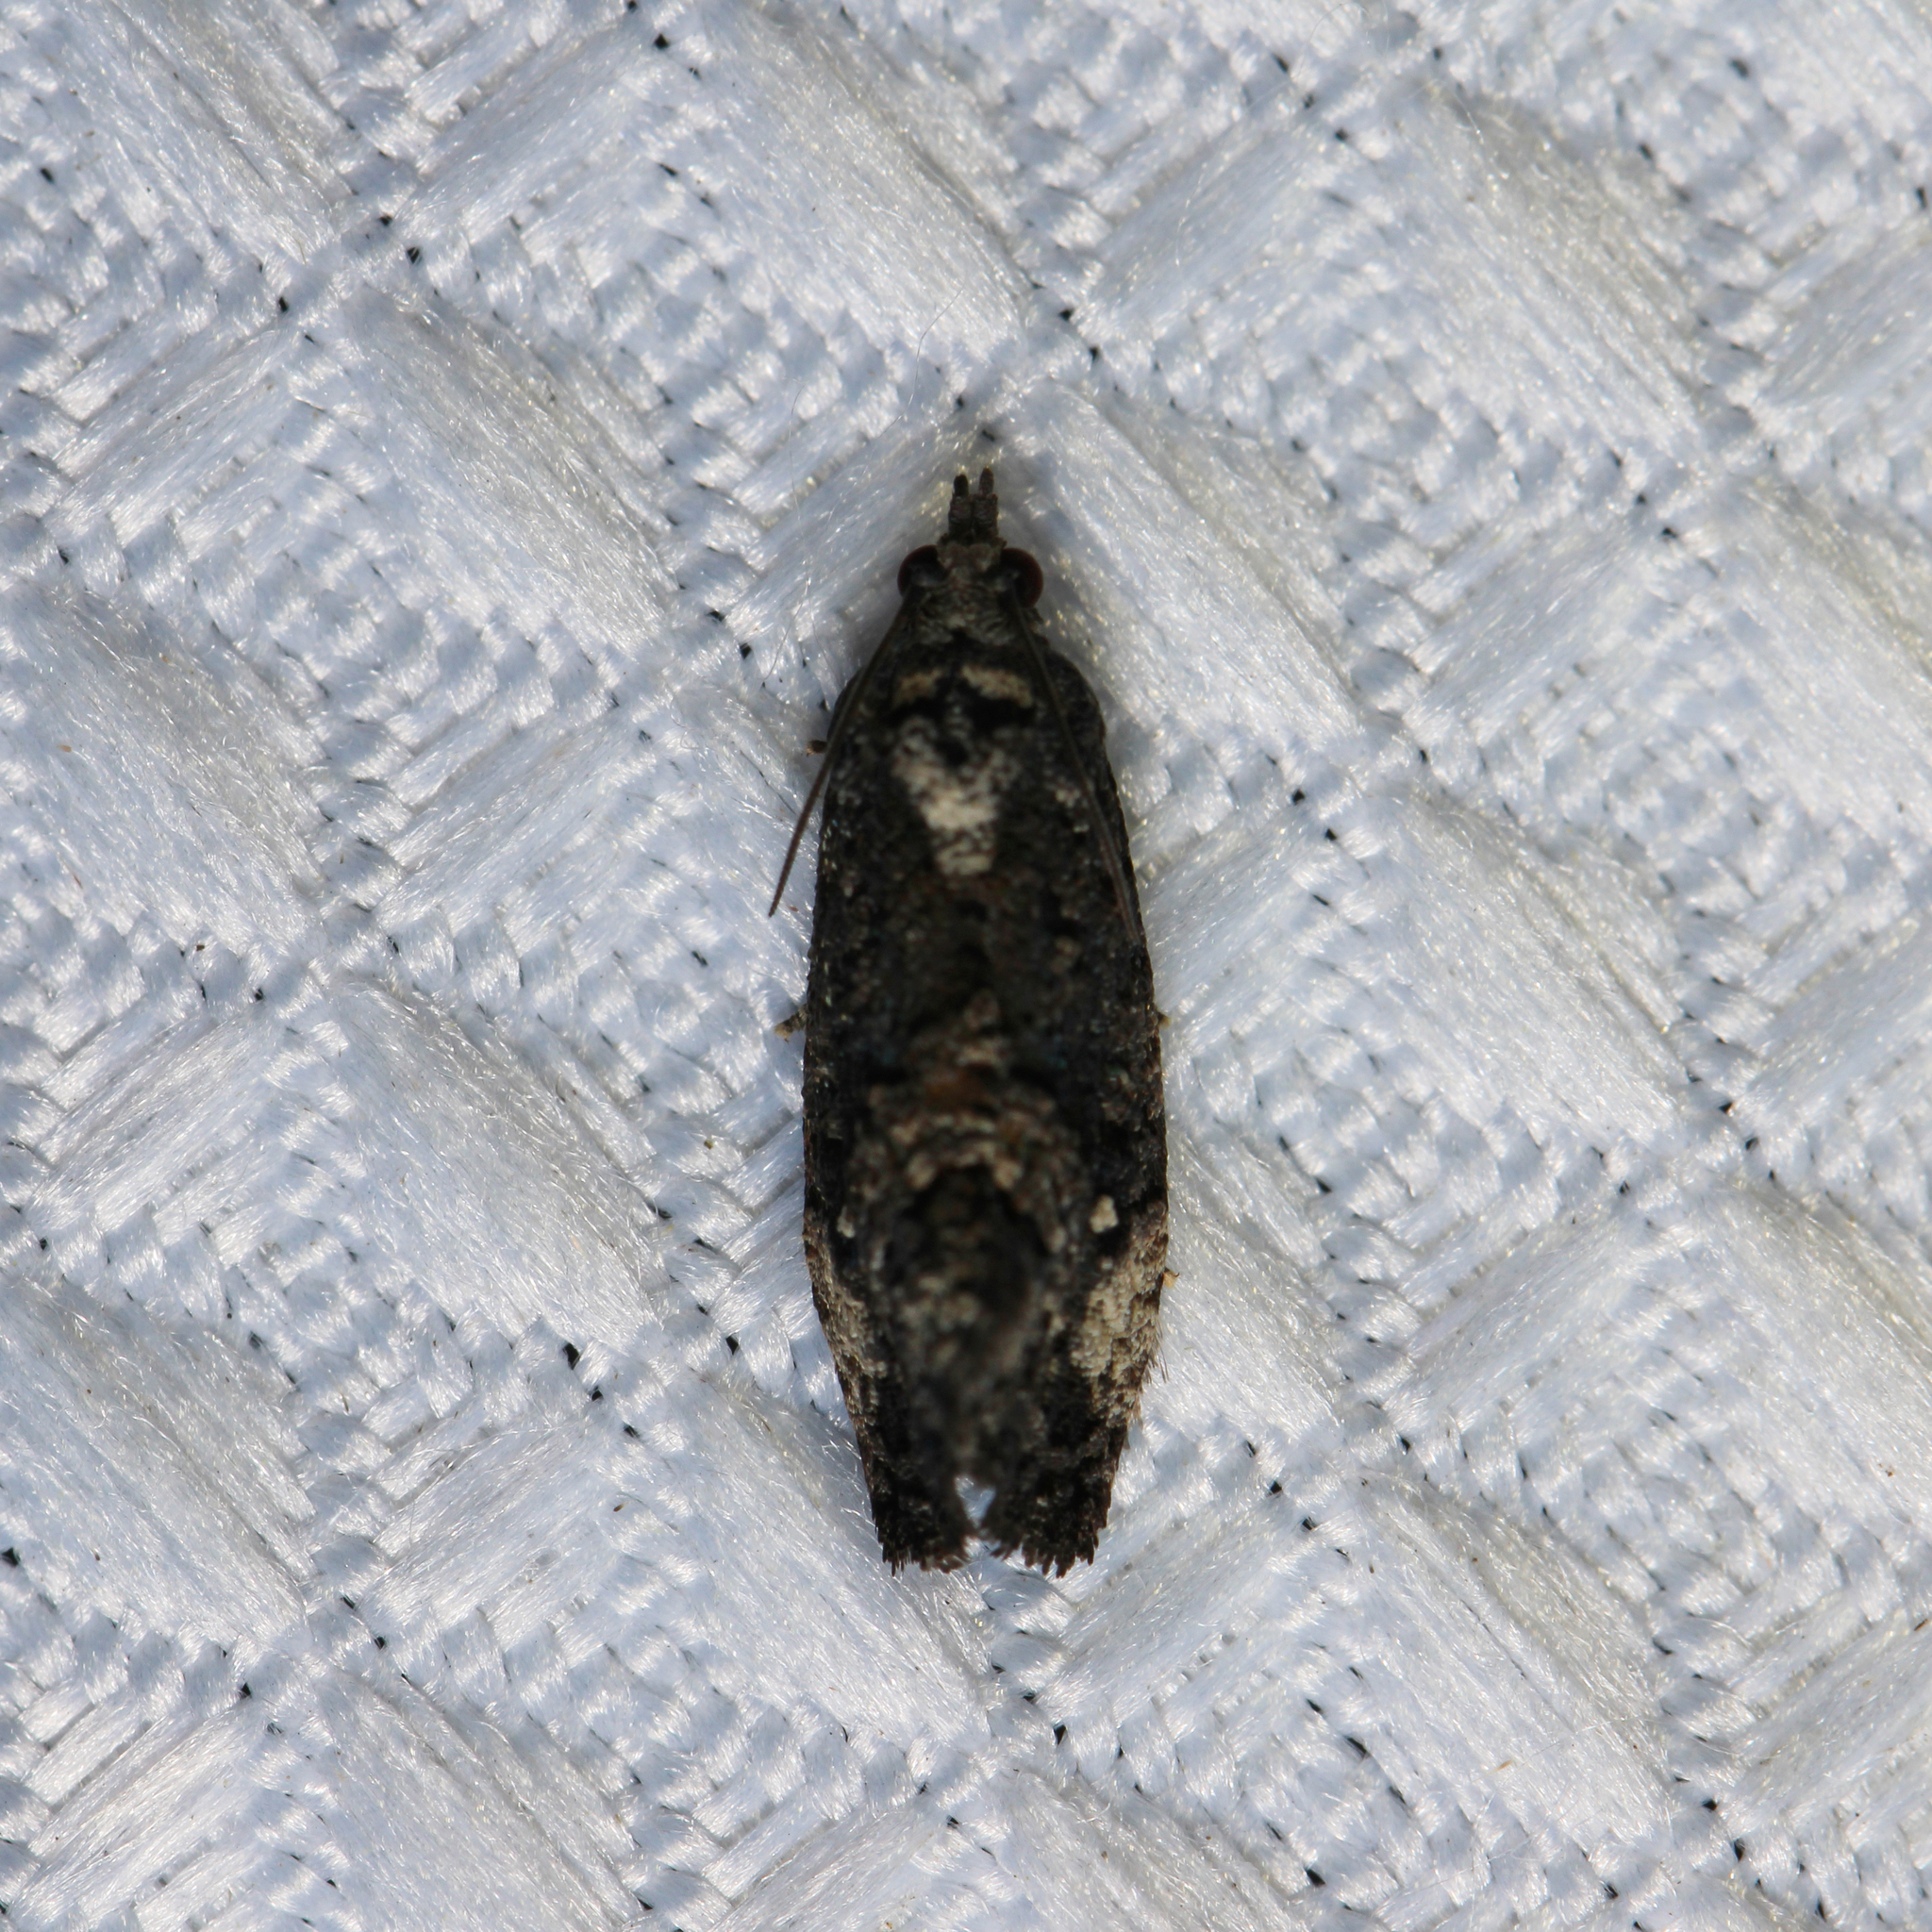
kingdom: Animalia
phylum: Arthropoda
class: Insecta
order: Lepidoptera
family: Tortricidae
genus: Gymnandrosoma
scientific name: Gymnandrosoma punctidiscanum
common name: Dotted ecdytolopha moth
